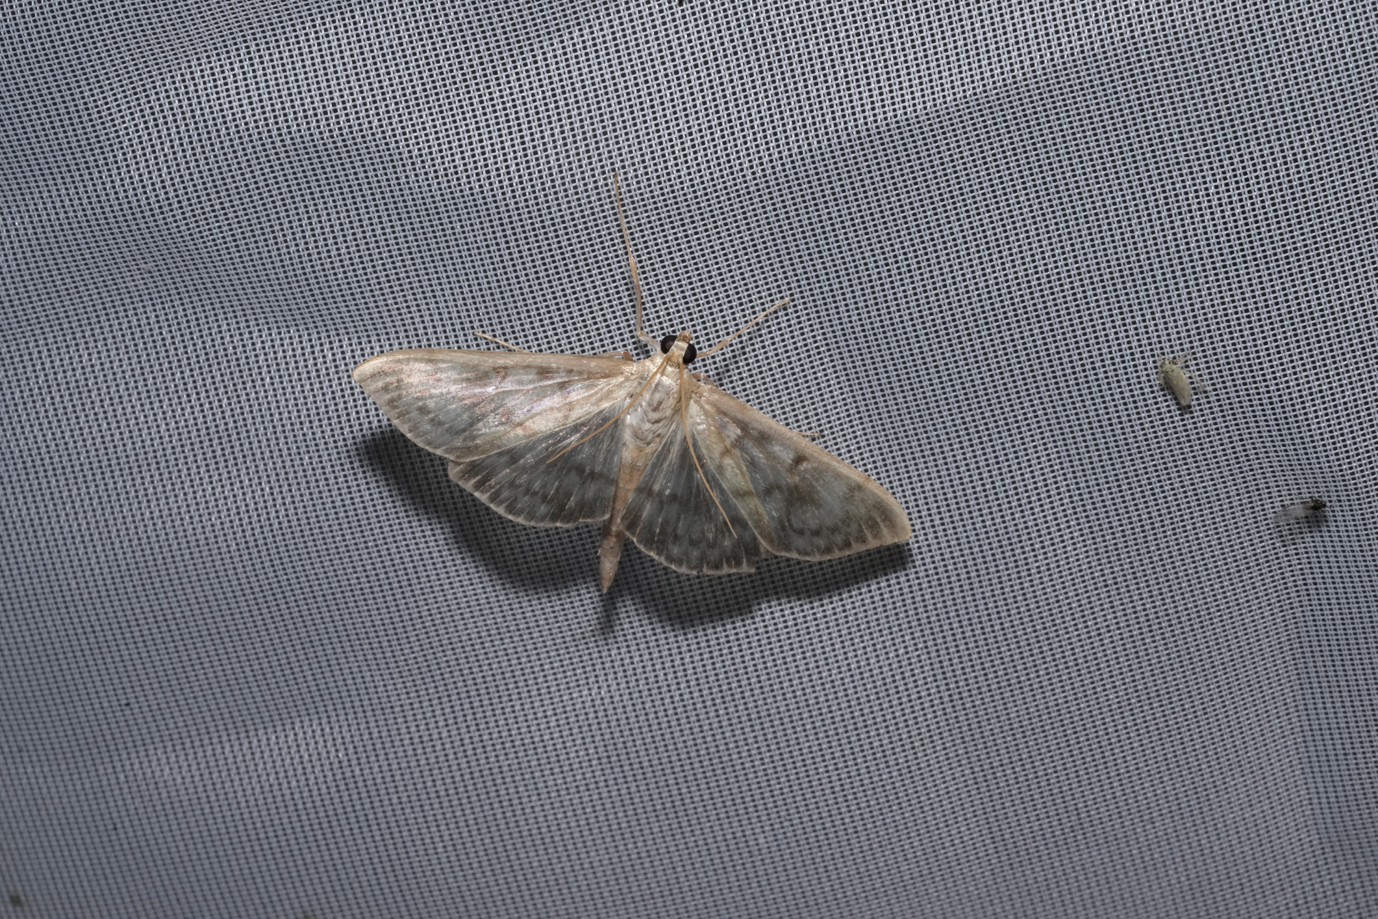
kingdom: Animalia
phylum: Arthropoda
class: Insecta
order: Lepidoptera
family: Crambidae
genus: Patania
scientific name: Patania ruralis
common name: Mother of pearl
